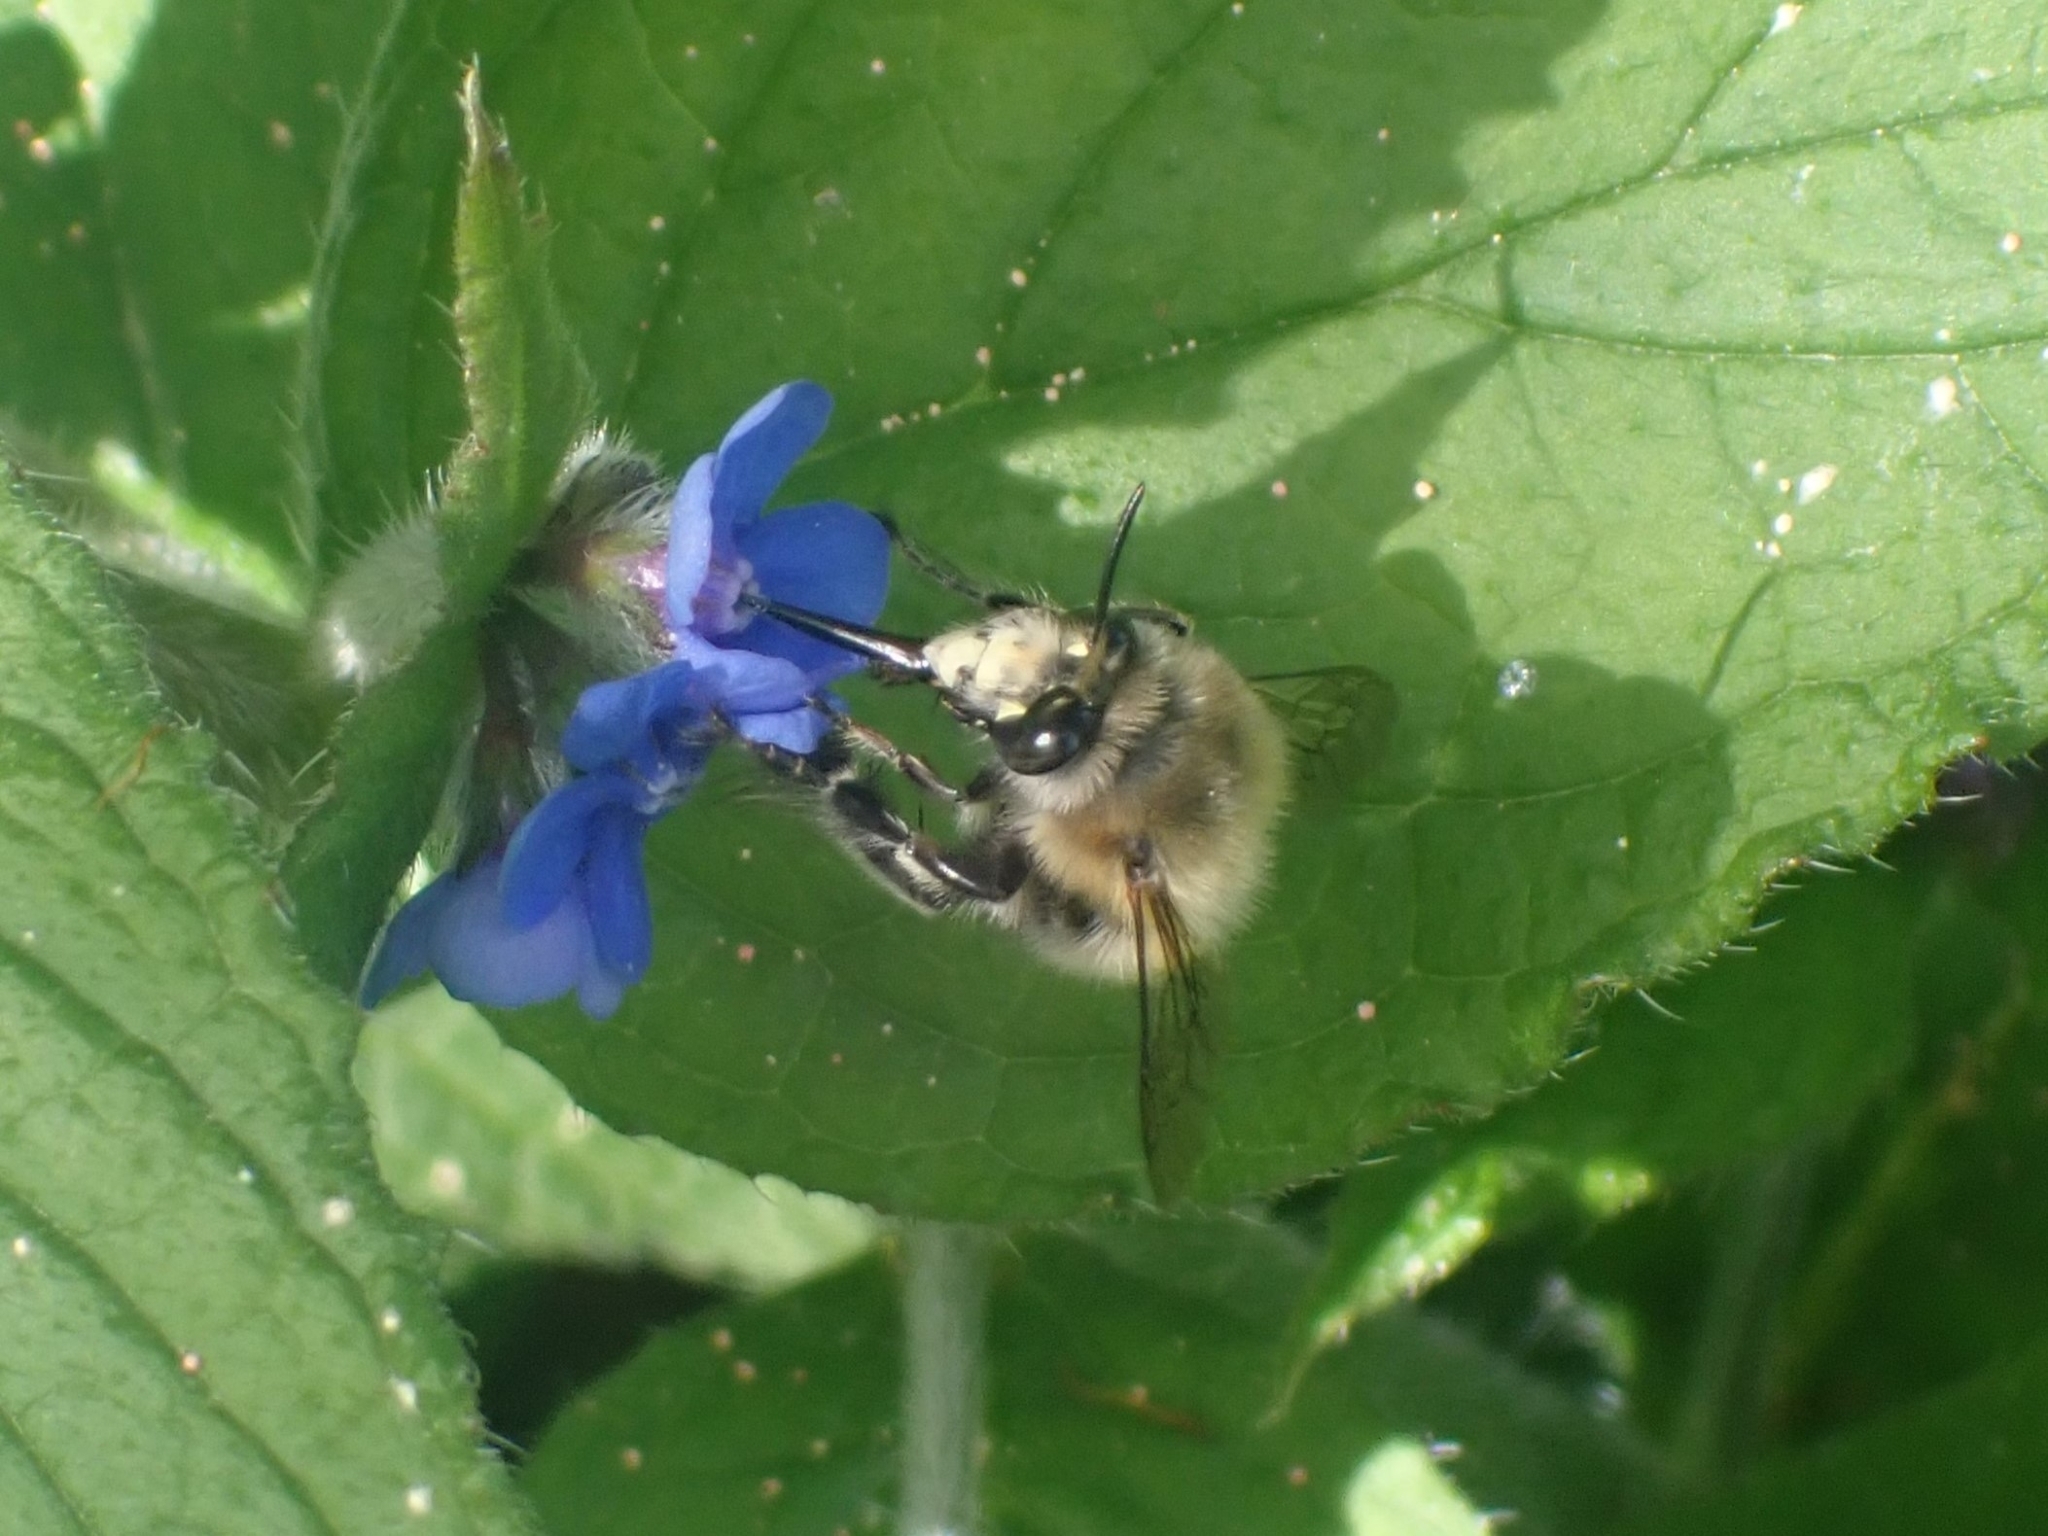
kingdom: Animalia
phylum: Arthropoda
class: Insecta
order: Hymenoptera
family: Apidae
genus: Anthophora
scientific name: Anthophora plumipes
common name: Hairy-footed flower bee
